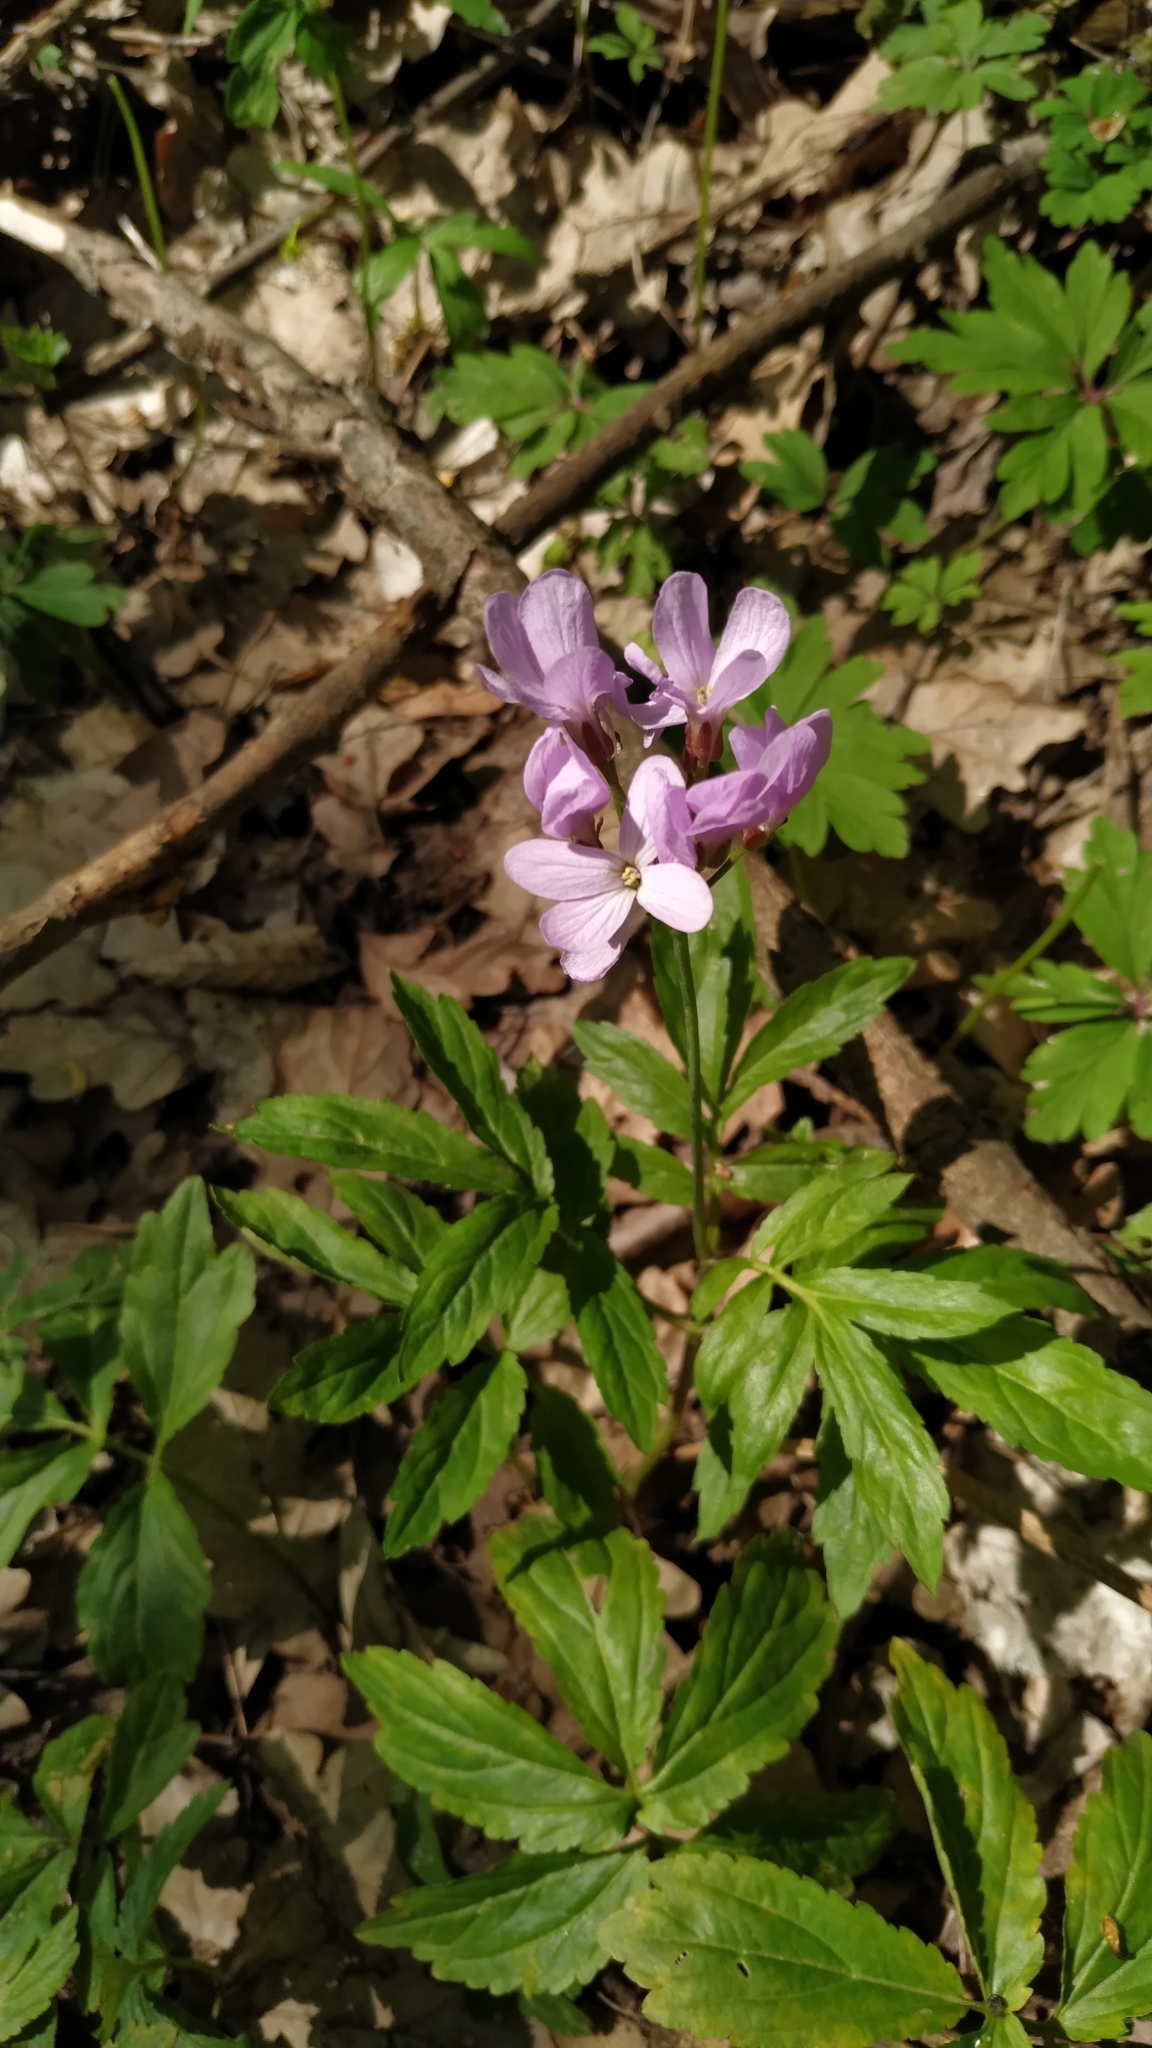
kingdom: Plantae
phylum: Tracheophyta
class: Magnoliopsida
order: Brassicales
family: Brassicaceae
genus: Cardamine
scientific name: Cardamine quinquefolia
